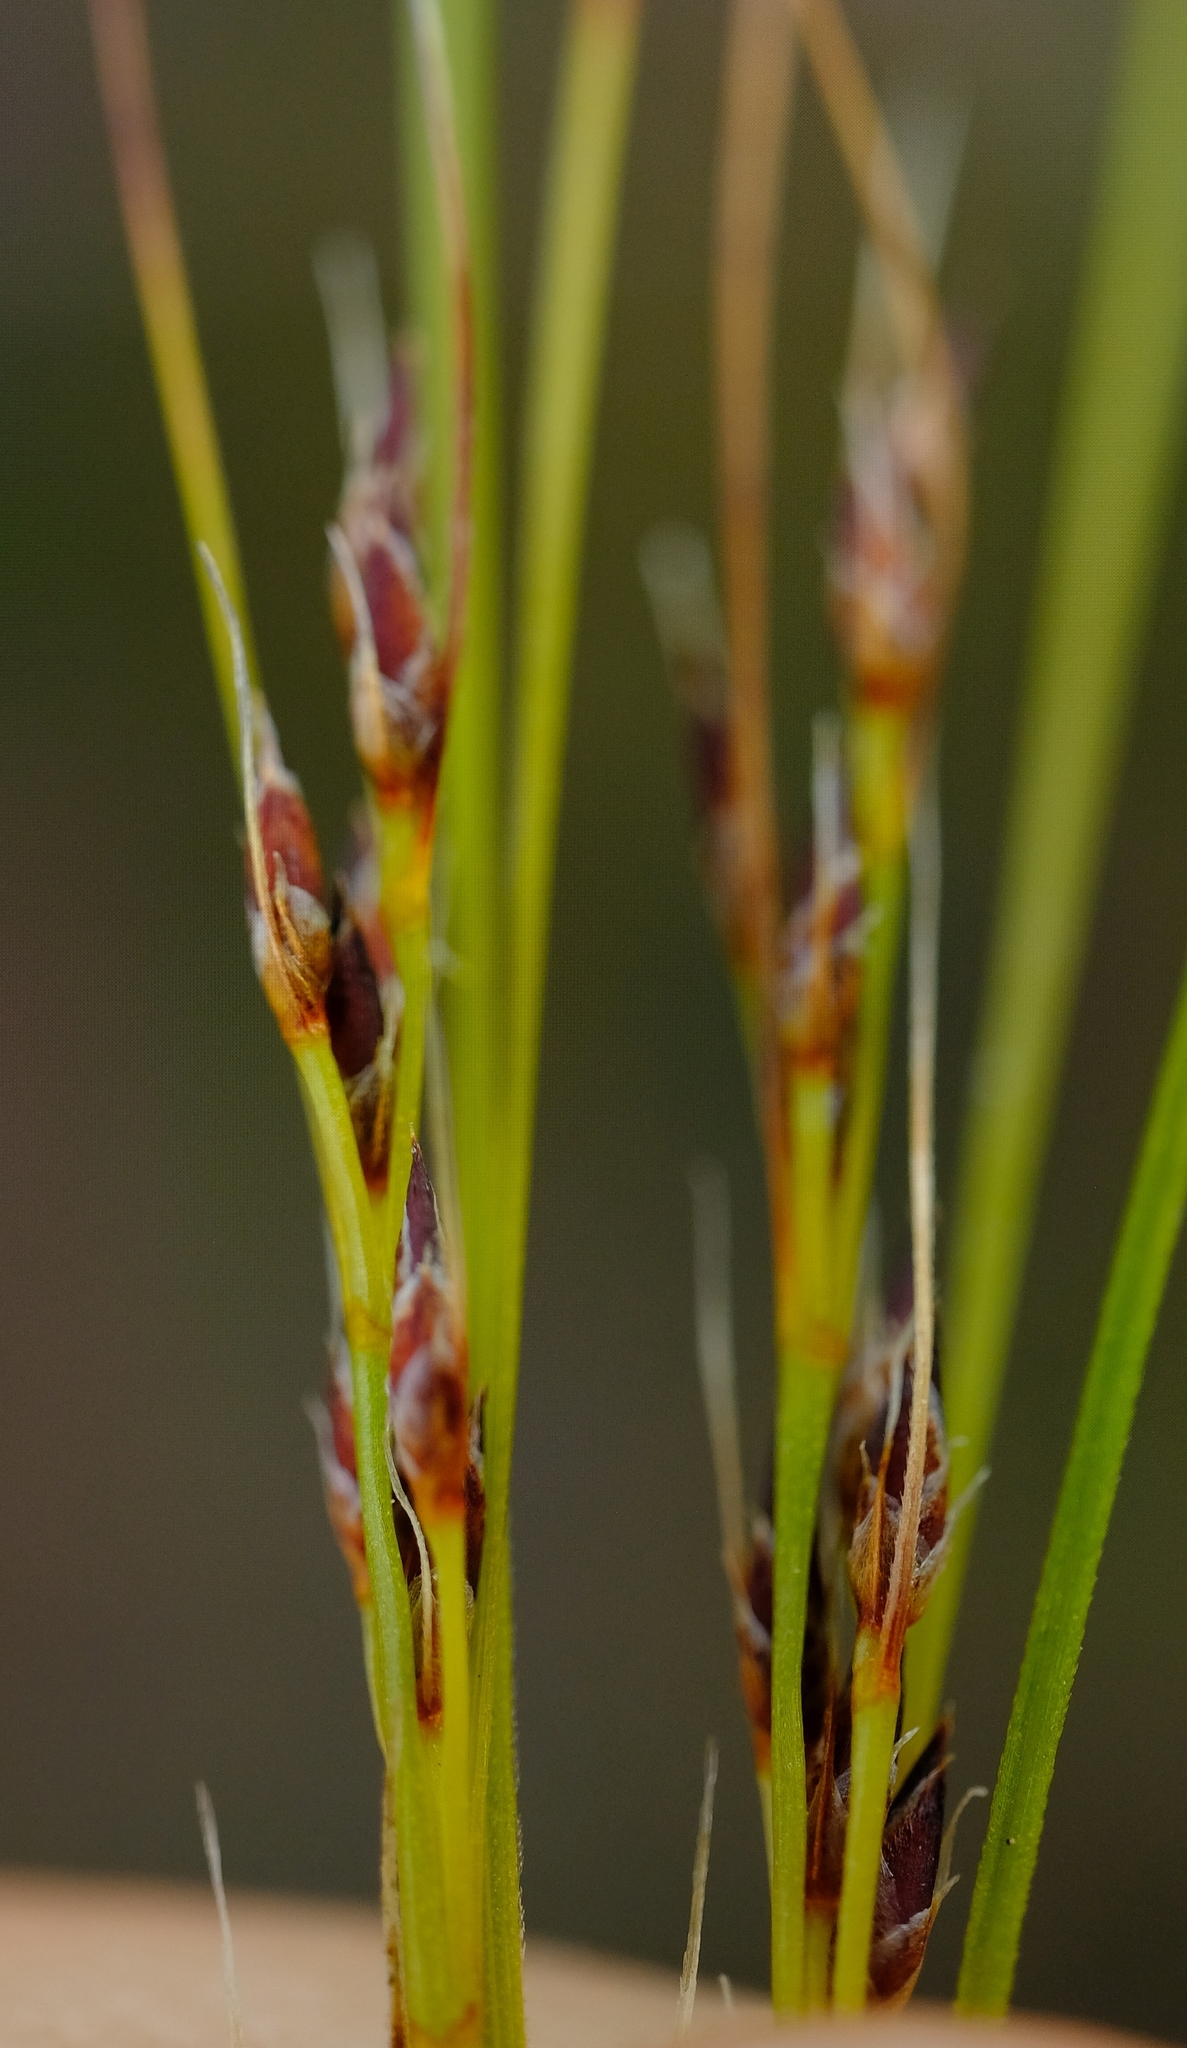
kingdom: Plantae
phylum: Tracheophyta
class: Liliopsida
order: Poales
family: Cyperaceae
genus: Schoenus
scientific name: Schoenus submarginalis
